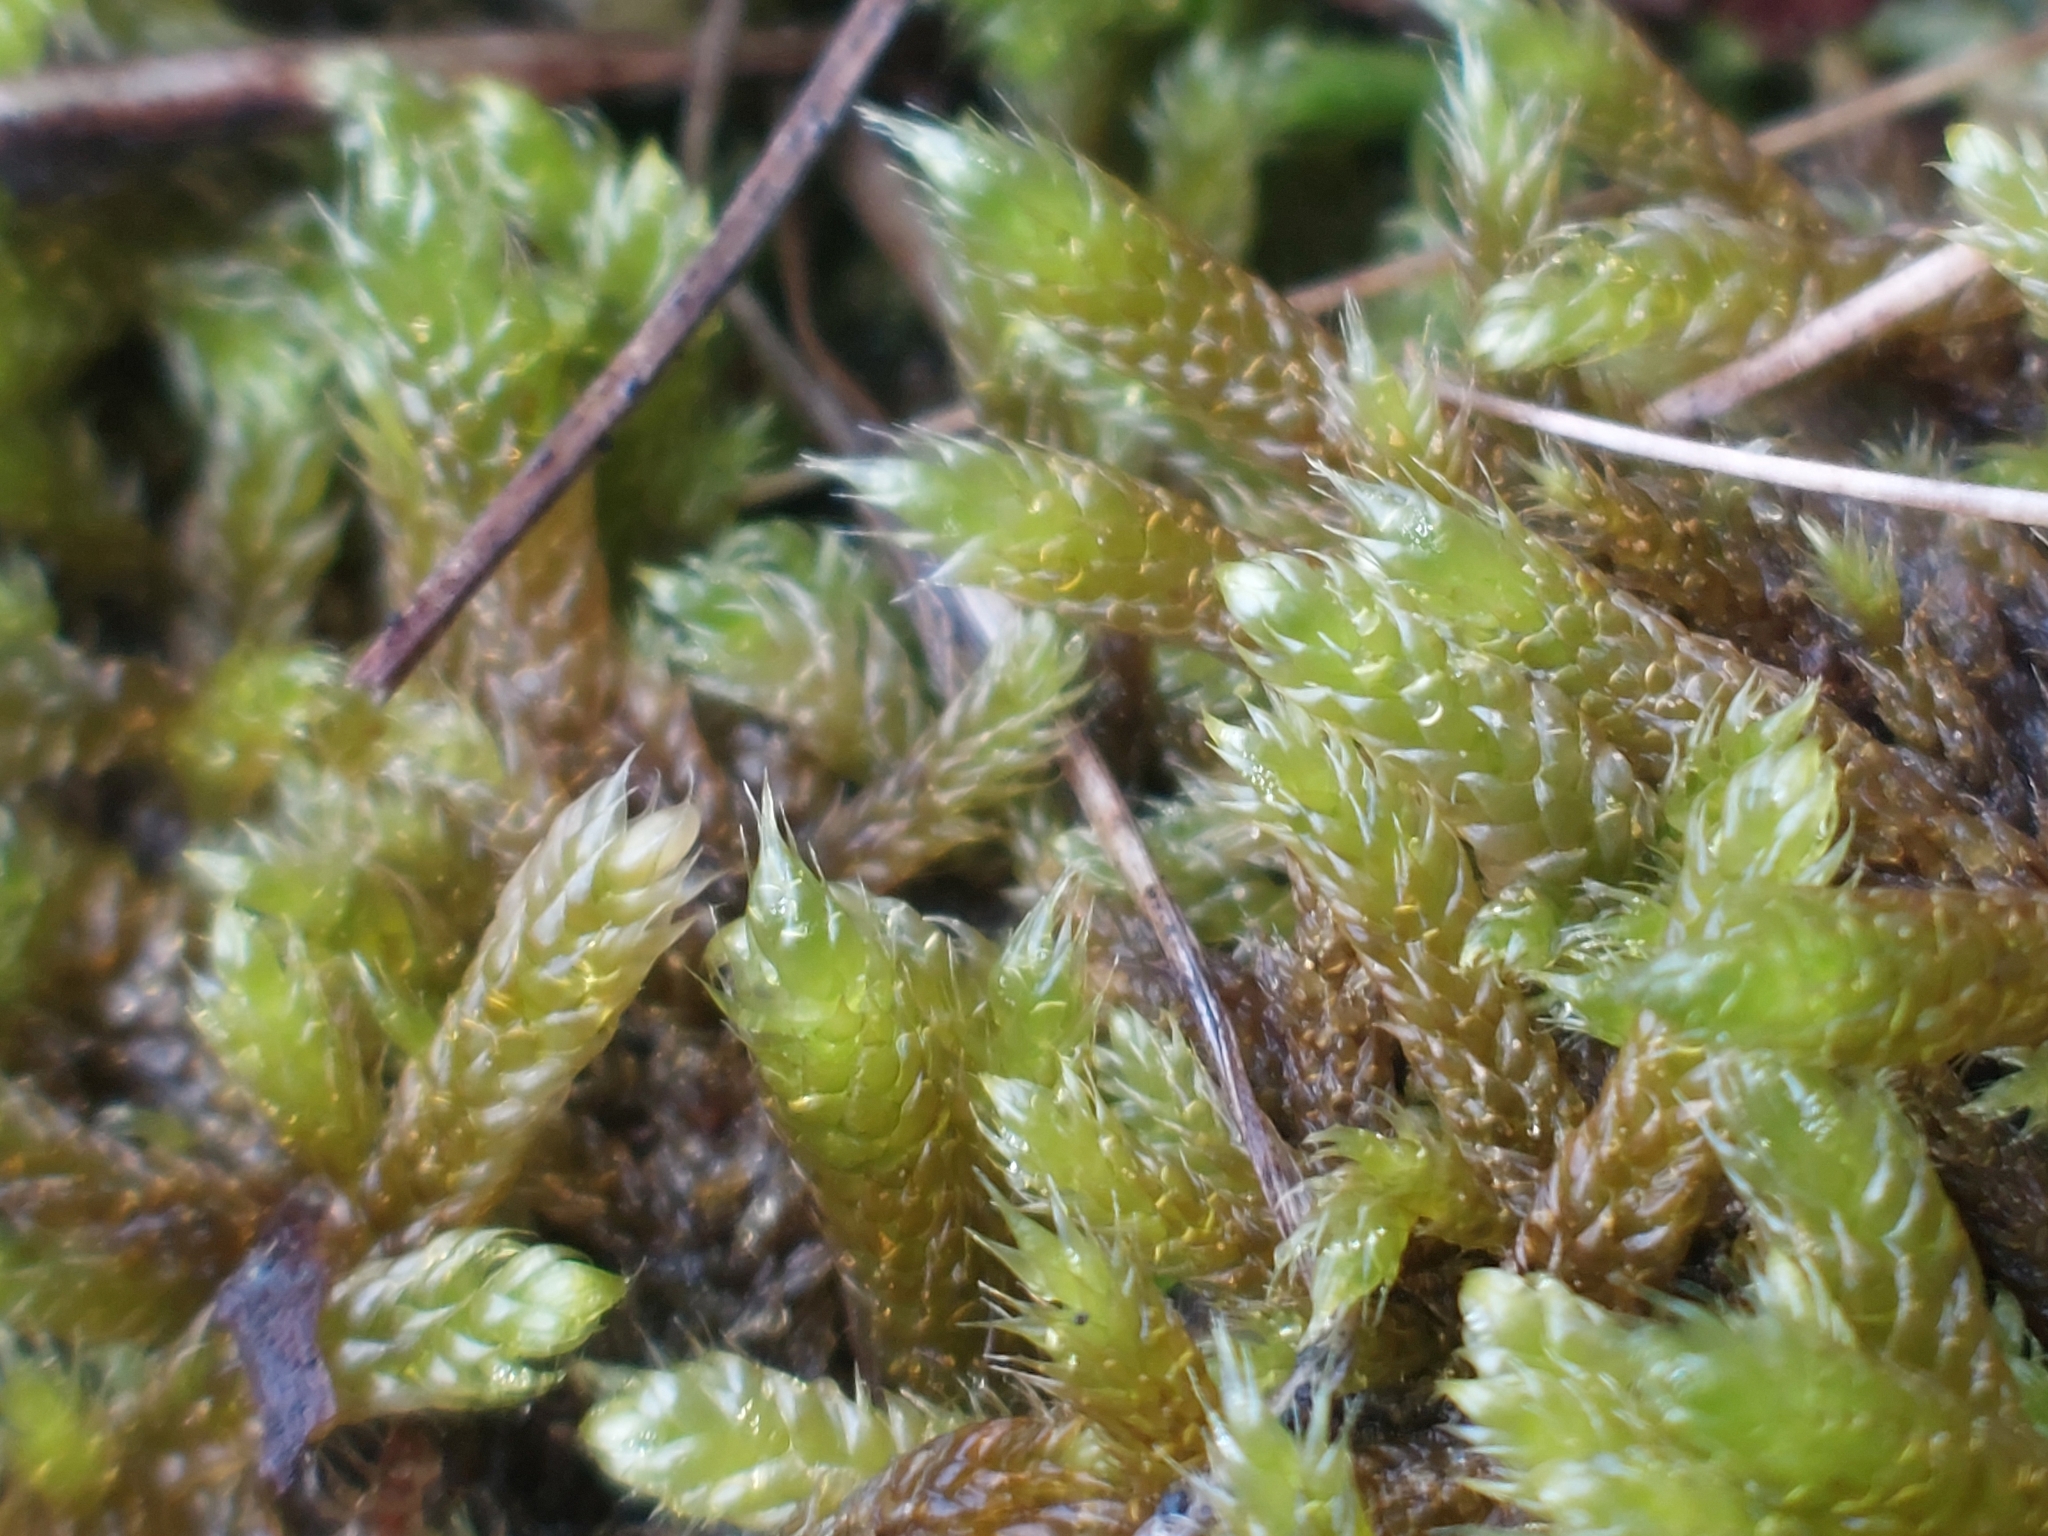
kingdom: Plantae
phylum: Bryophyta
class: Bryopsida
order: Hypnales
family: Hypnaceae
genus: Hypnum
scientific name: Hypnum cupressiforme
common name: Cypress-leaved plait-moss
